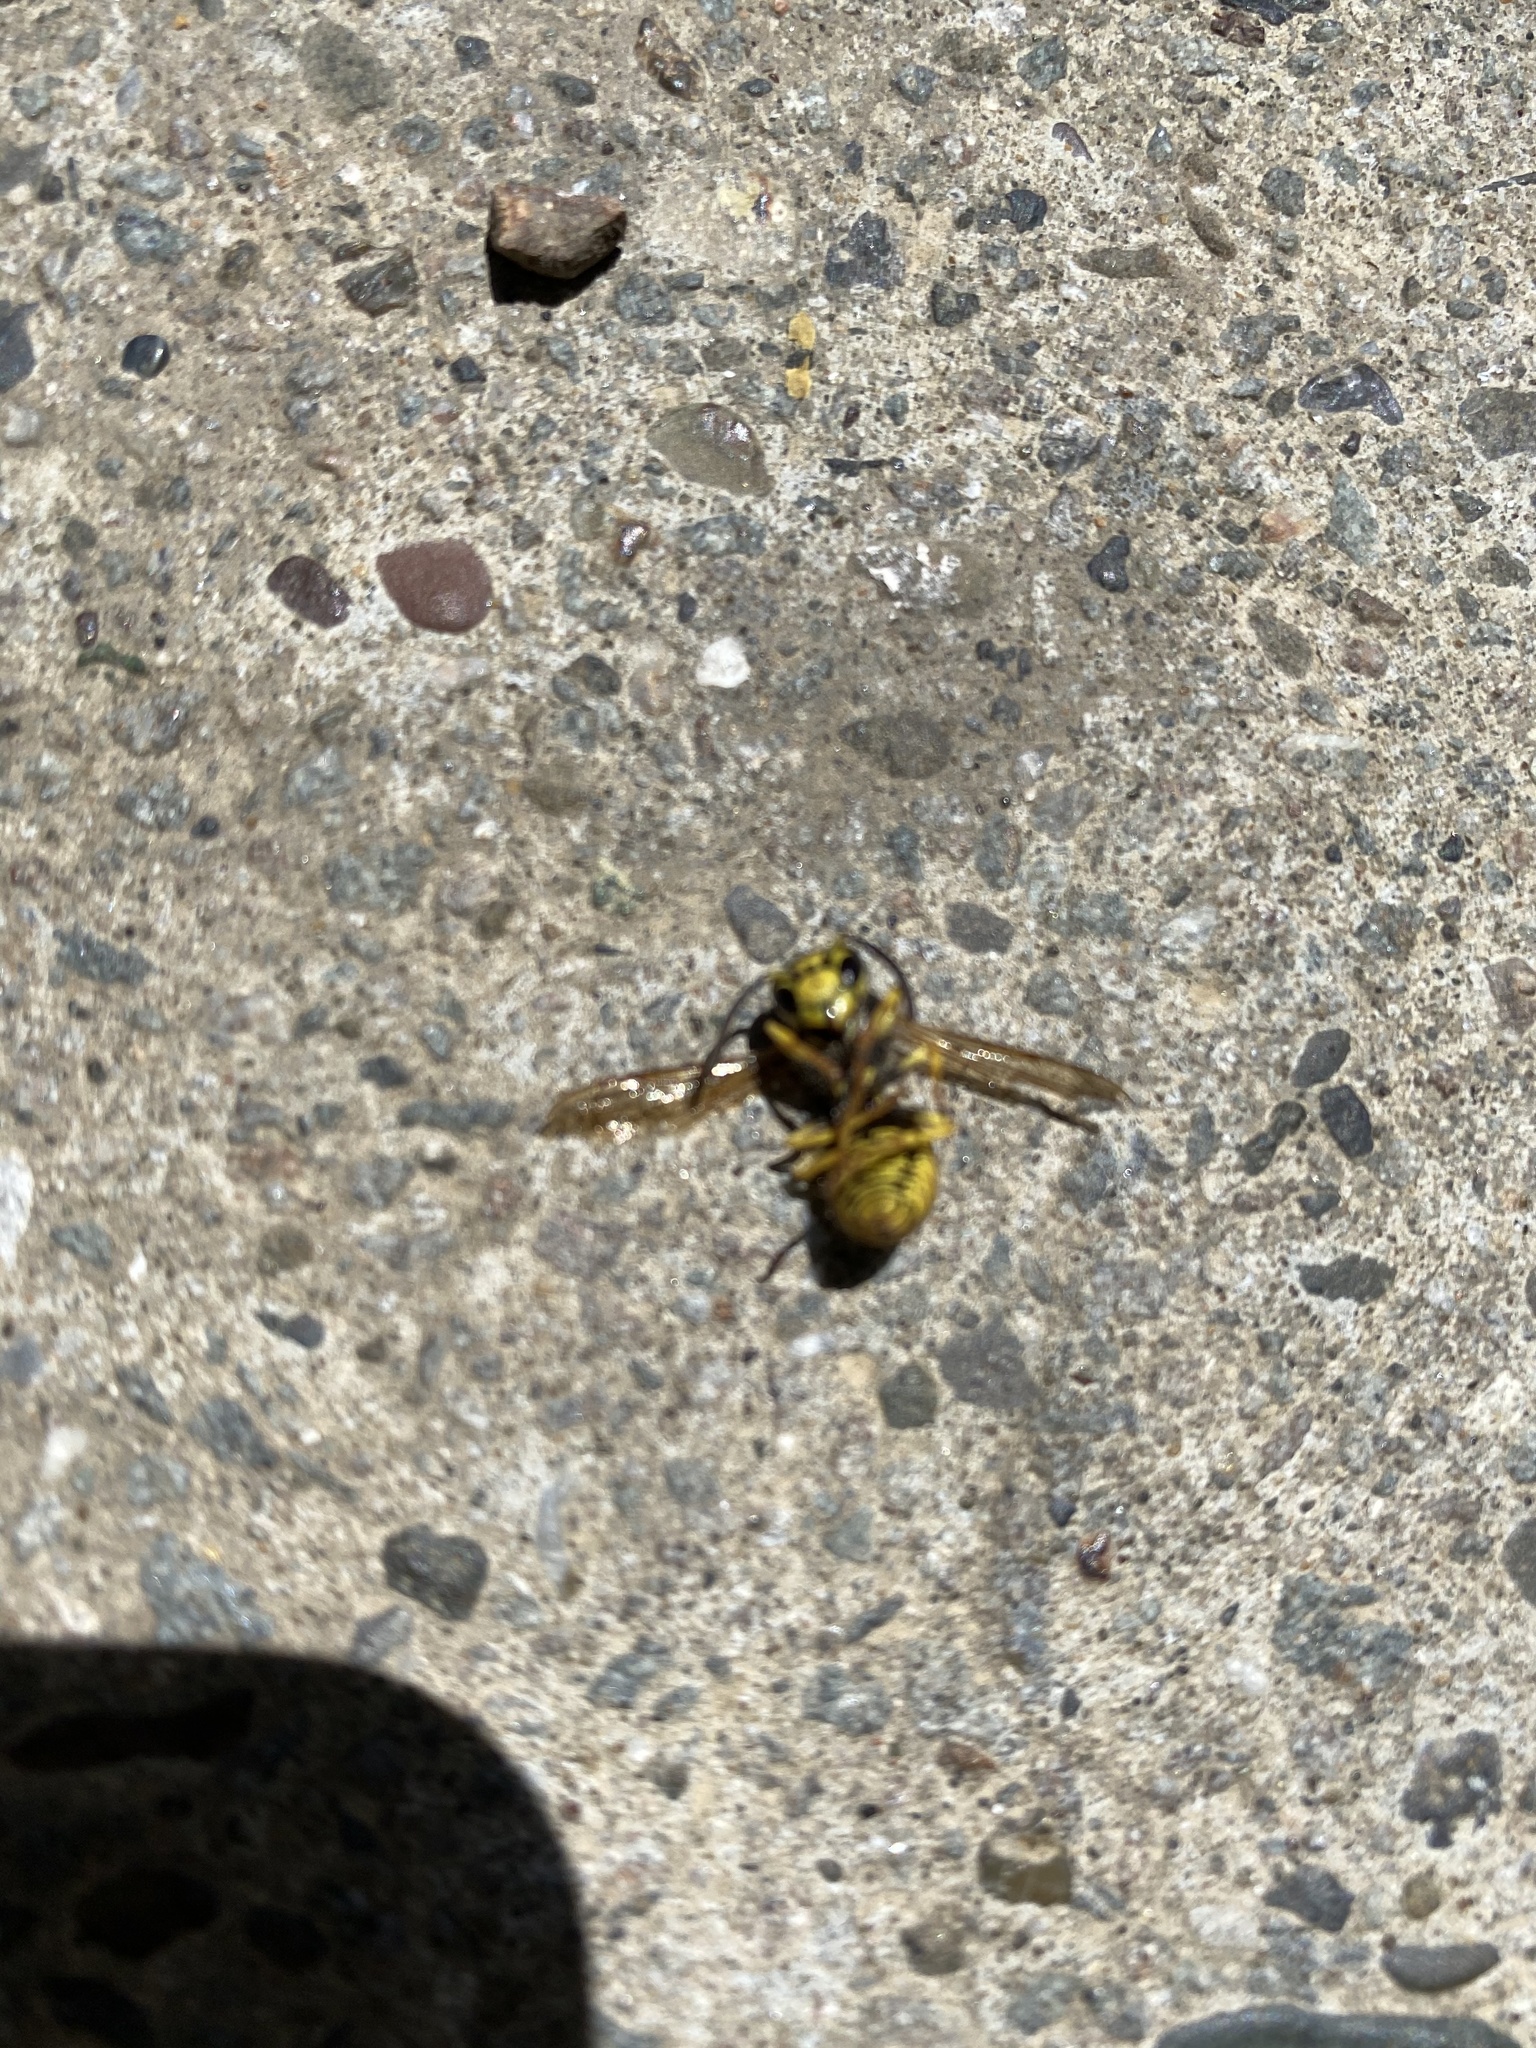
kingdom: Animalia
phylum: Arthropoda
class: Insecta
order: Hymenoptera
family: Vespidae
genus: Vespula
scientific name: Vespula pensylvanica
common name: Western yellowjacket
